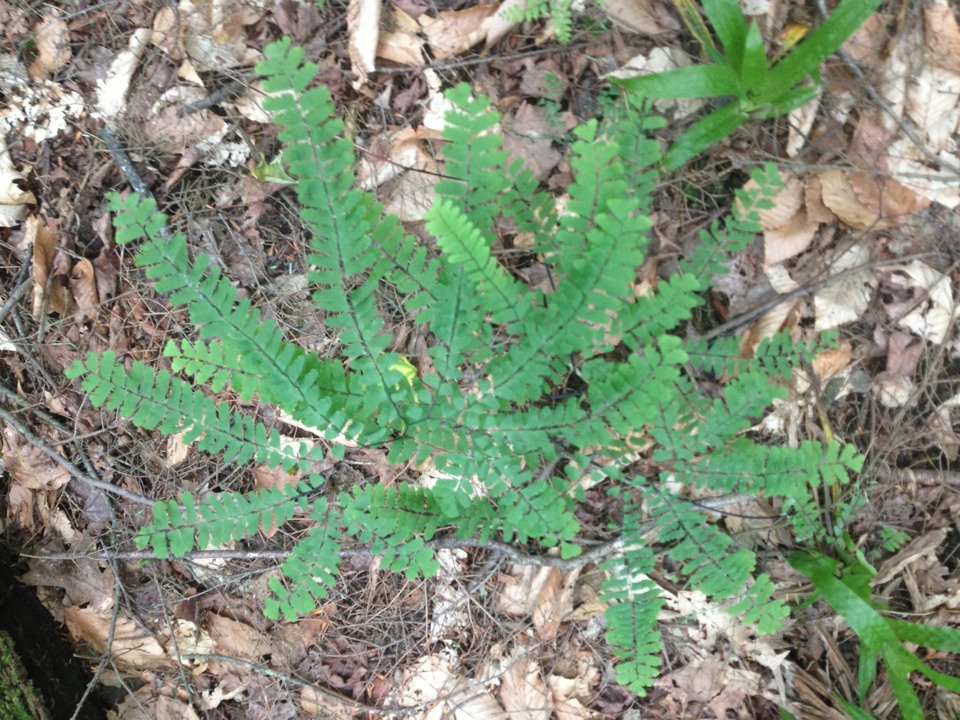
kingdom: Plantae
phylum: Tracheophyta
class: Polypodiopsida
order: Polypodiales
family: Pteridaceae
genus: Adiantum
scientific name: Adiantum pedatum
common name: Five-finger fern
